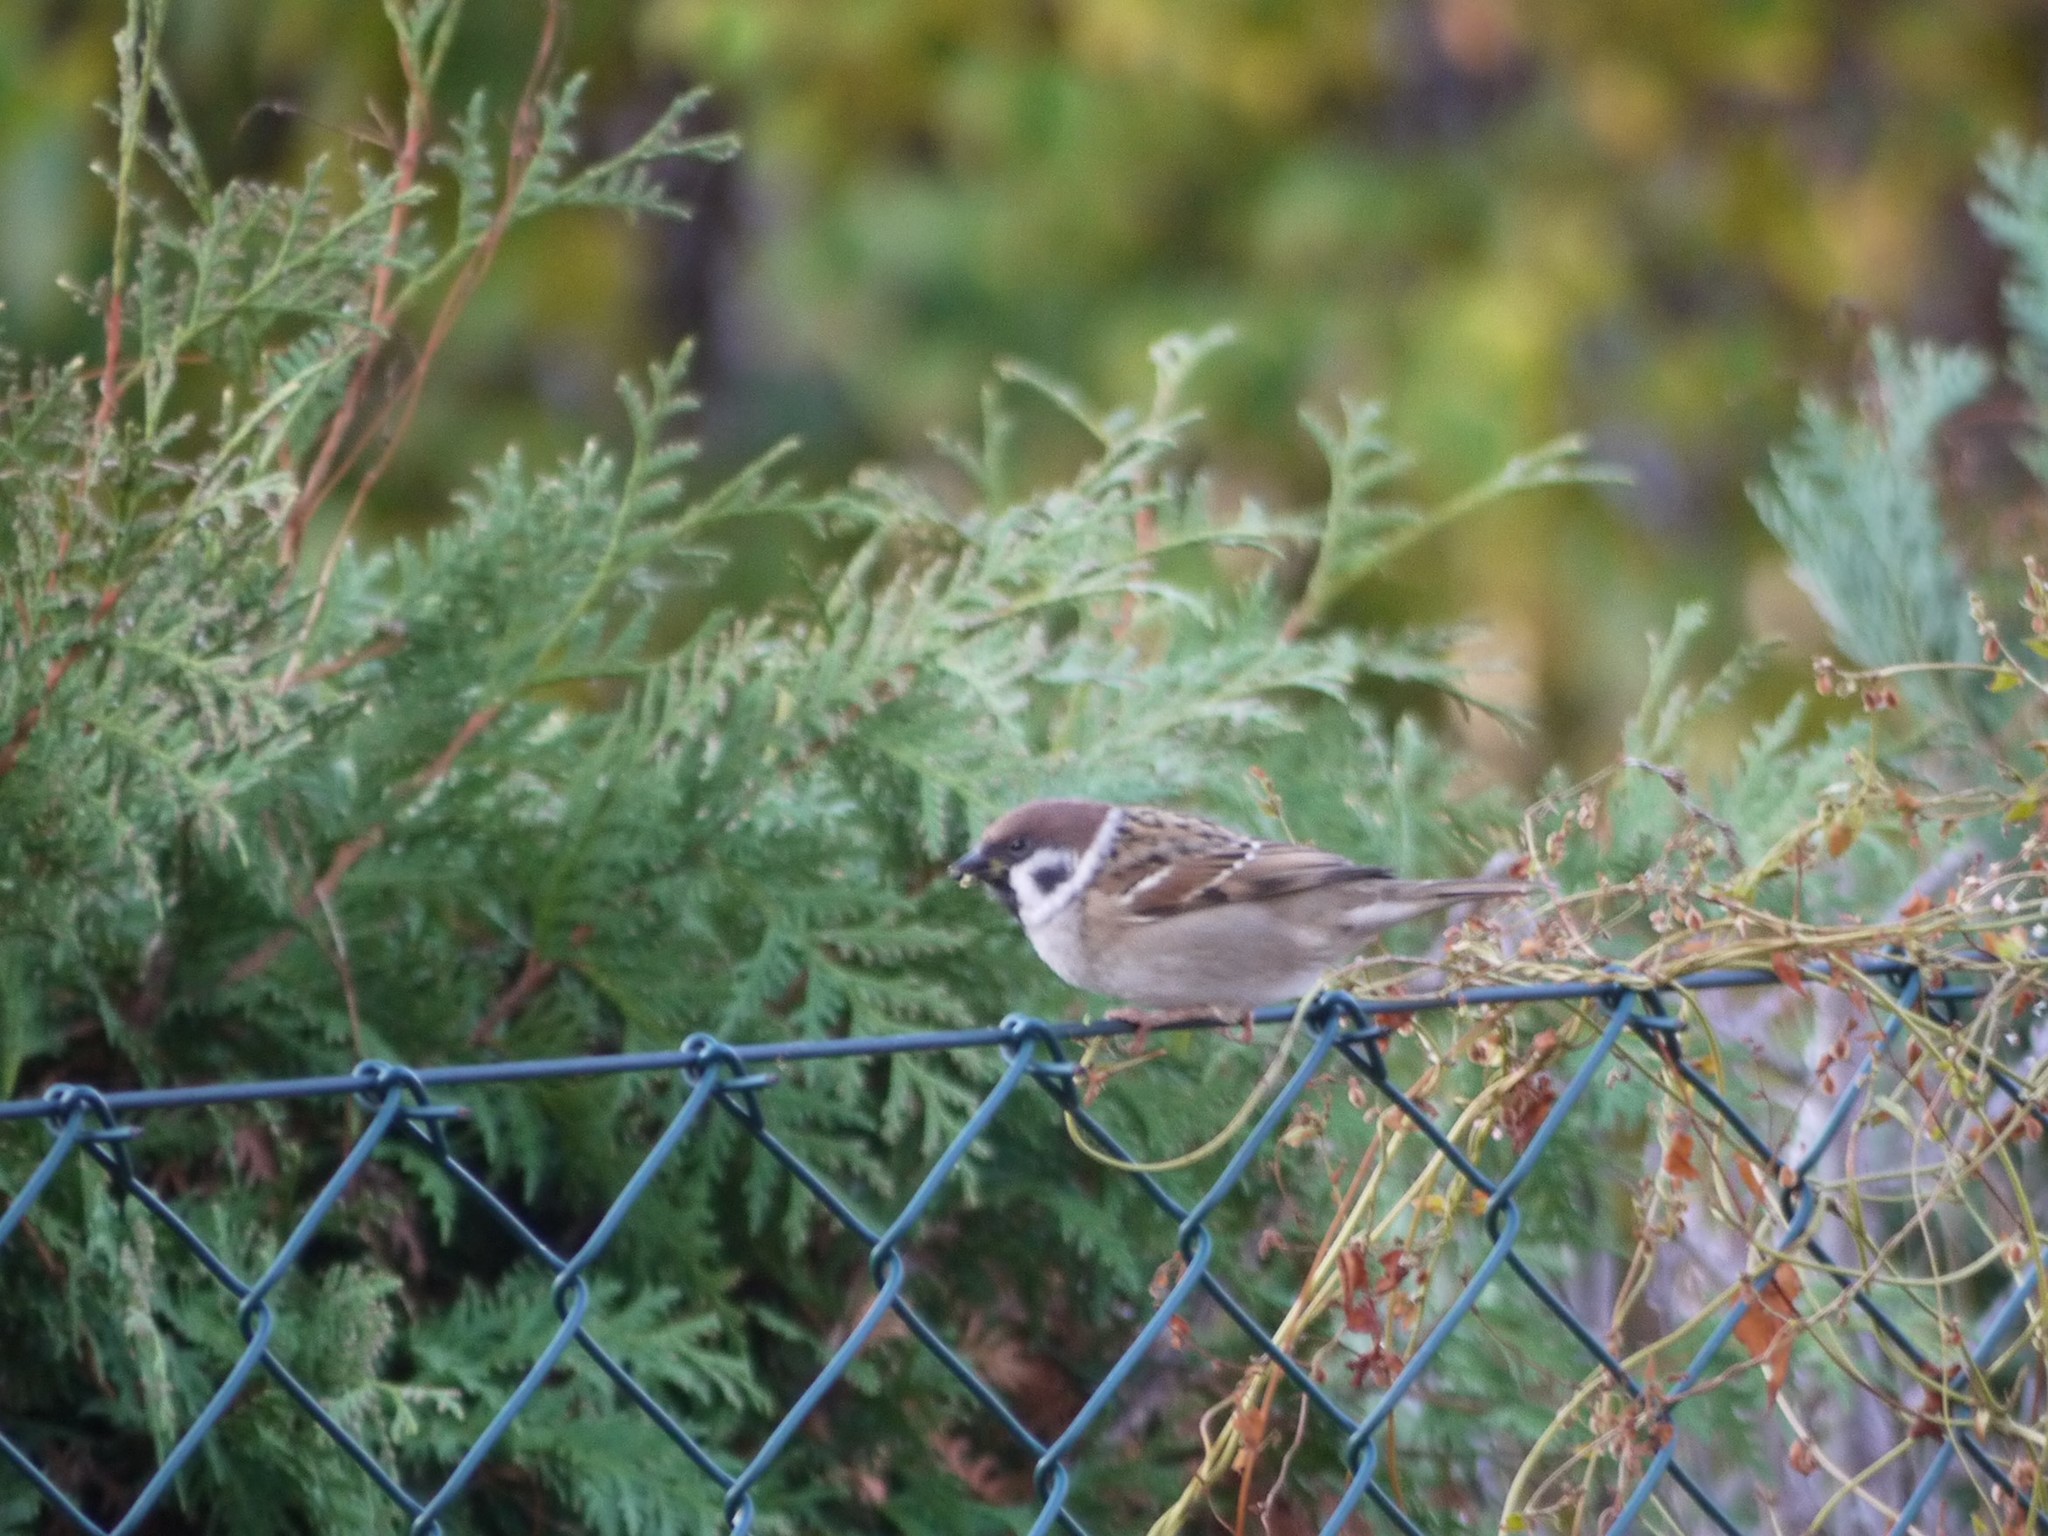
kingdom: Animalia
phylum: Chordata
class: Aves
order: Passeriformes
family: Passeridae
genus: Passer
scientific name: Passer montanus
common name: Eurasian tree sparrow
